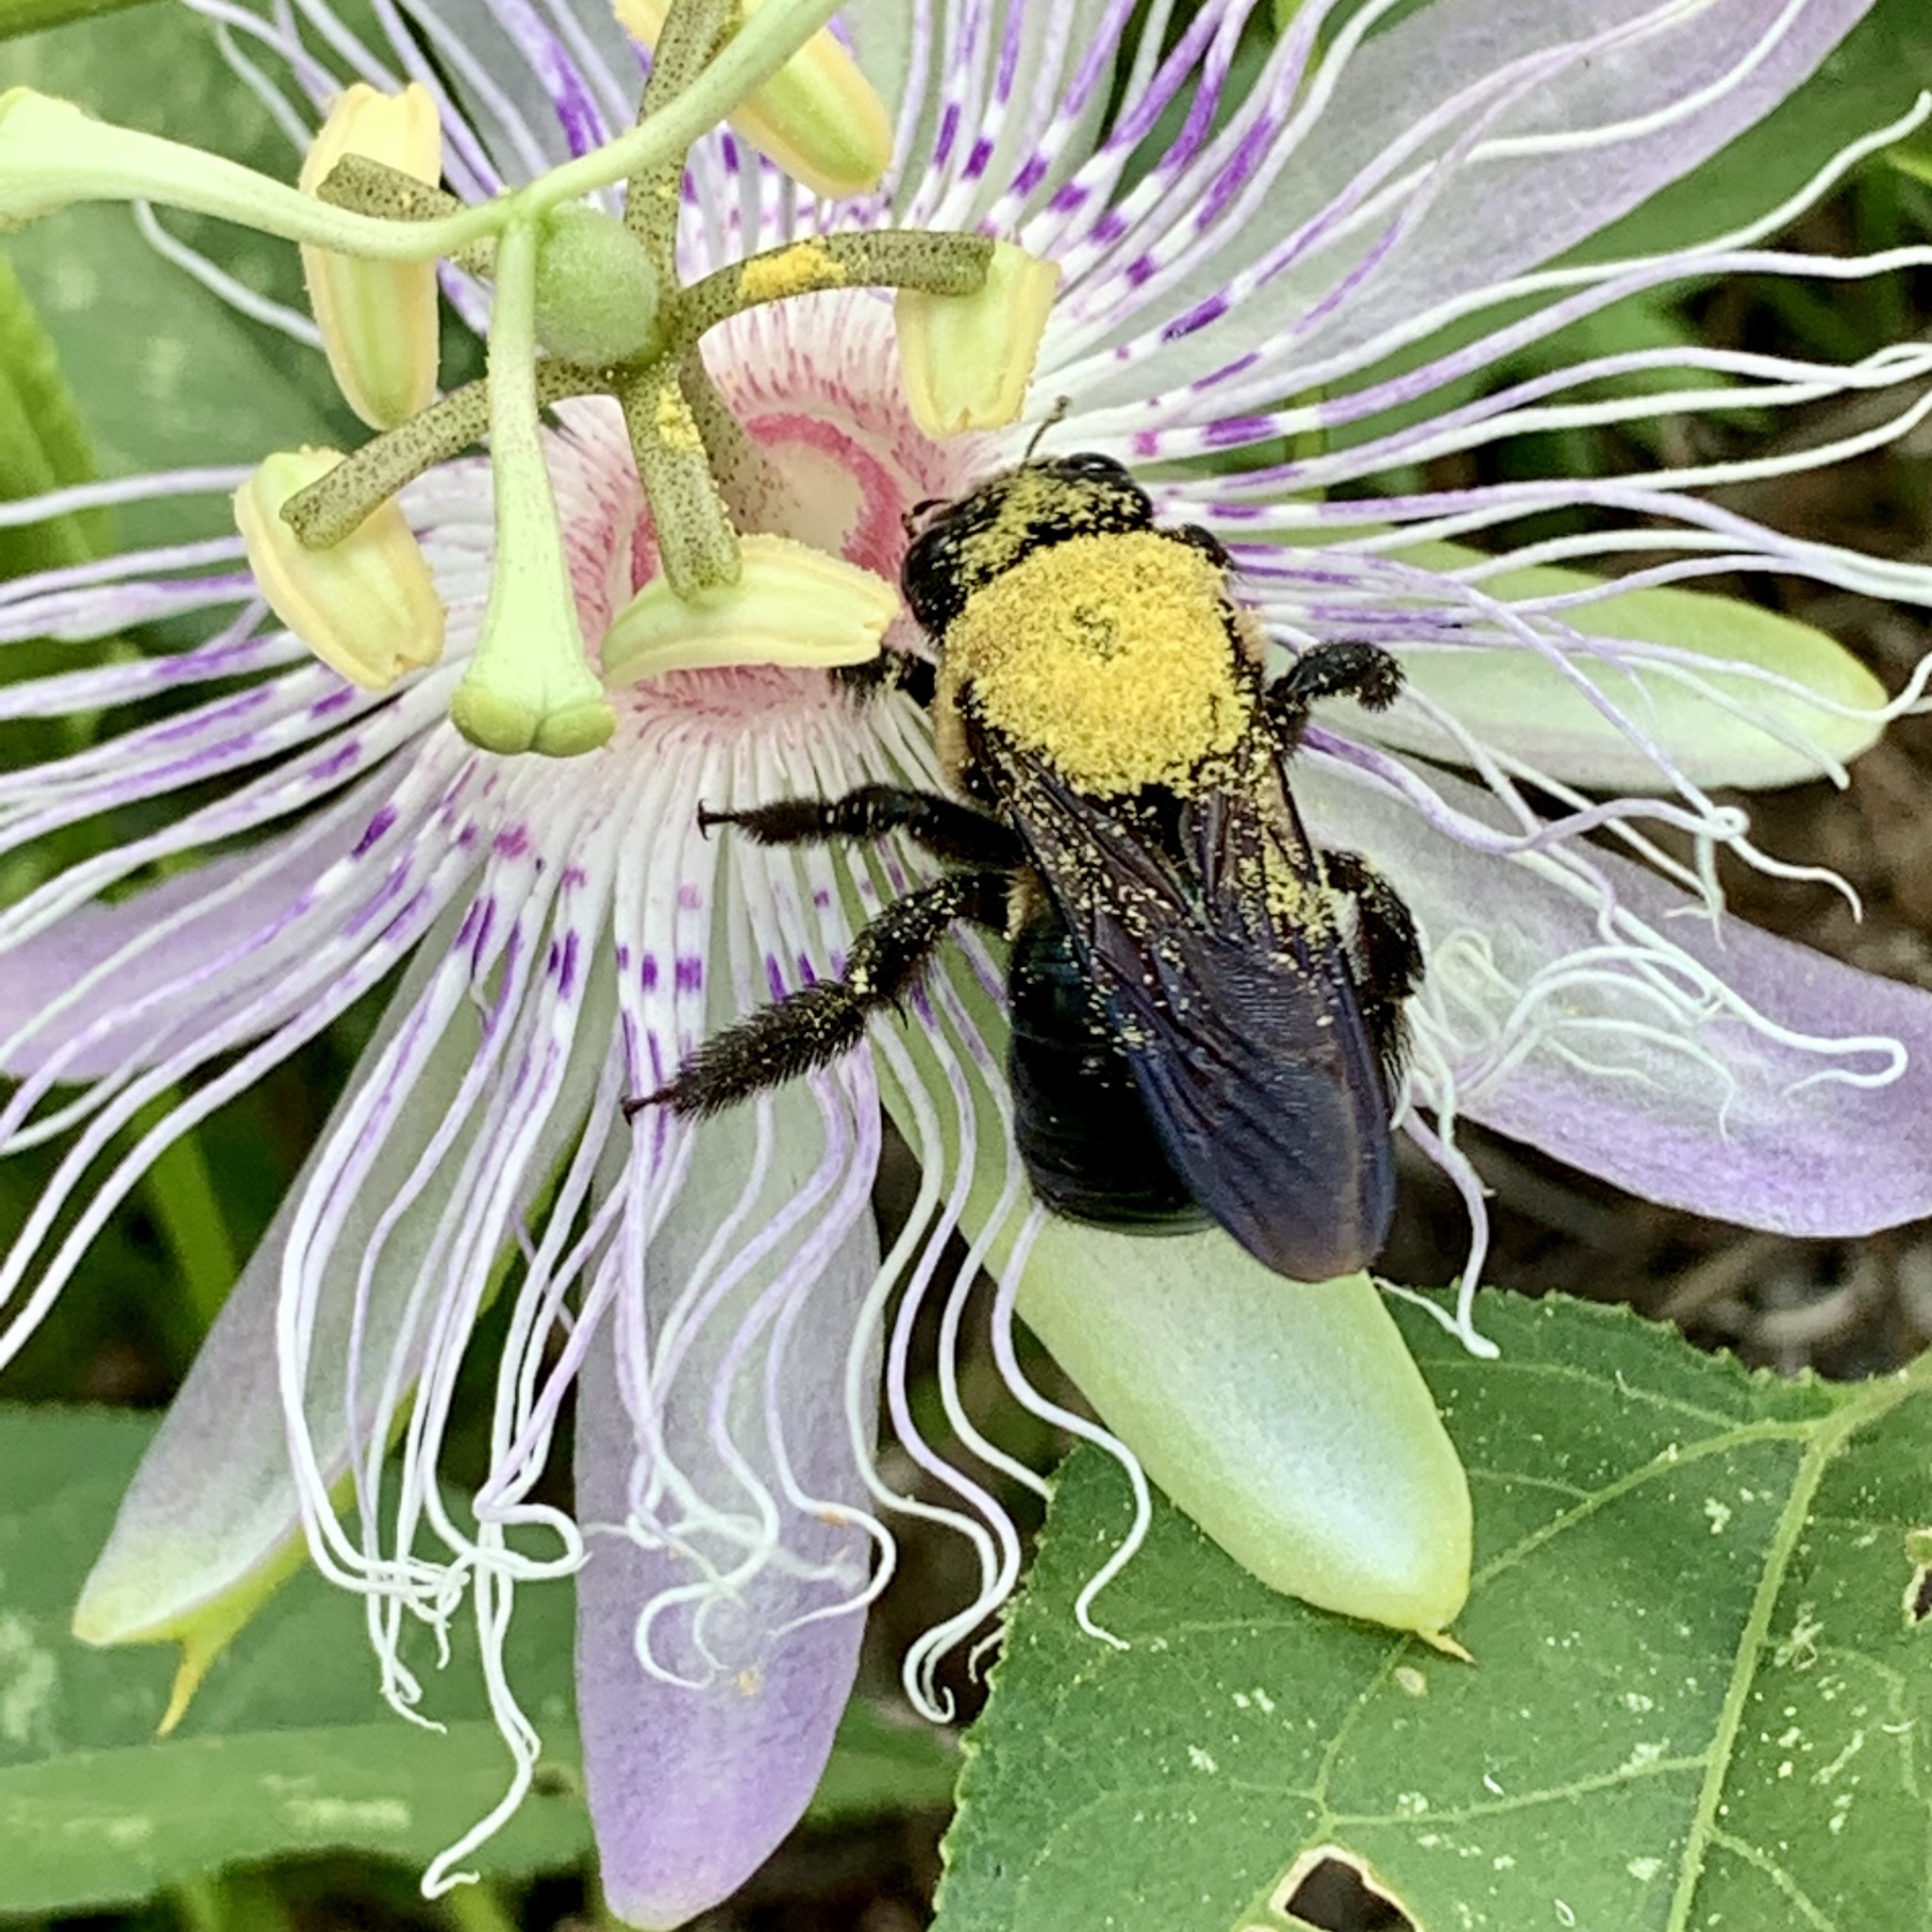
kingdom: Animalia
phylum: Arthropoda
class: Insecta
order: Hymenoptera
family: Apidae
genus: Xylocopa
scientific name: Xylocopa virginica
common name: Carpenter bee
